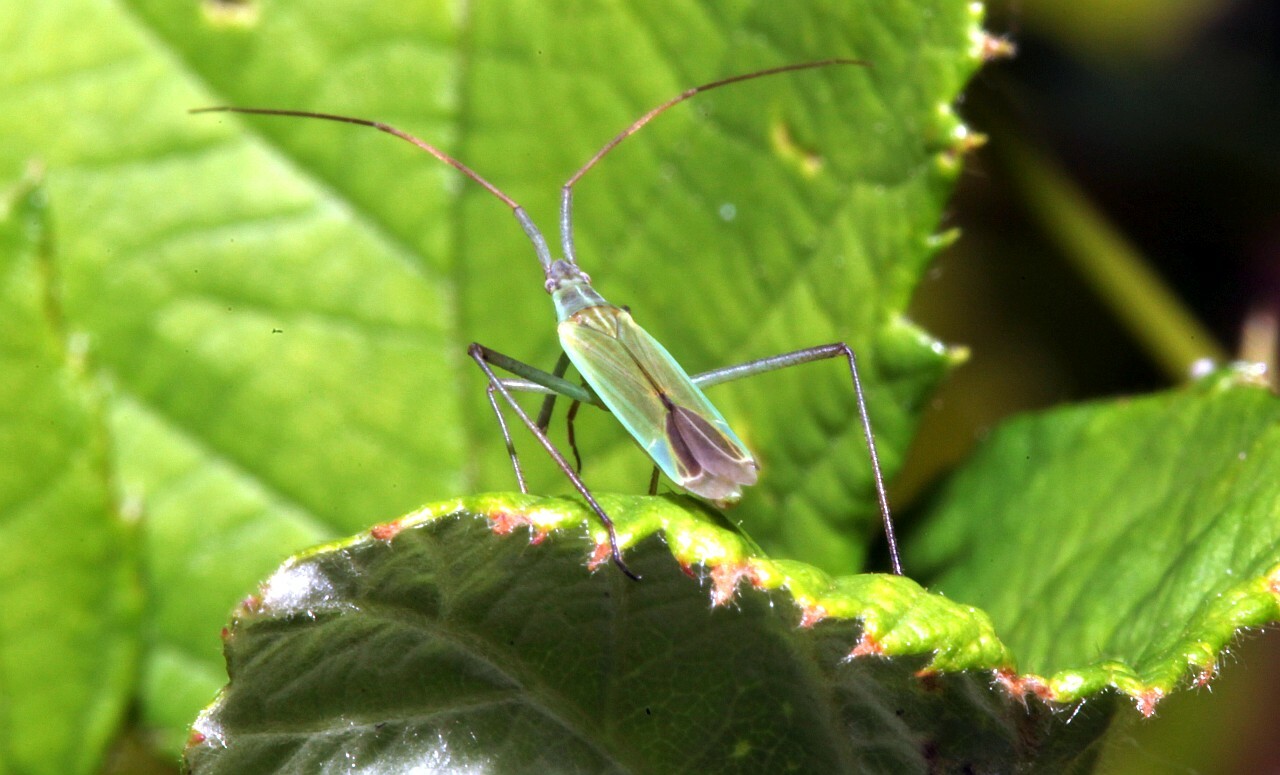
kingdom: Animalia
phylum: Arthropoda
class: Insecta
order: Hemiptera
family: Miridae
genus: Megaloceroea
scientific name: Megaloceroea recticornis
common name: Plant bug
